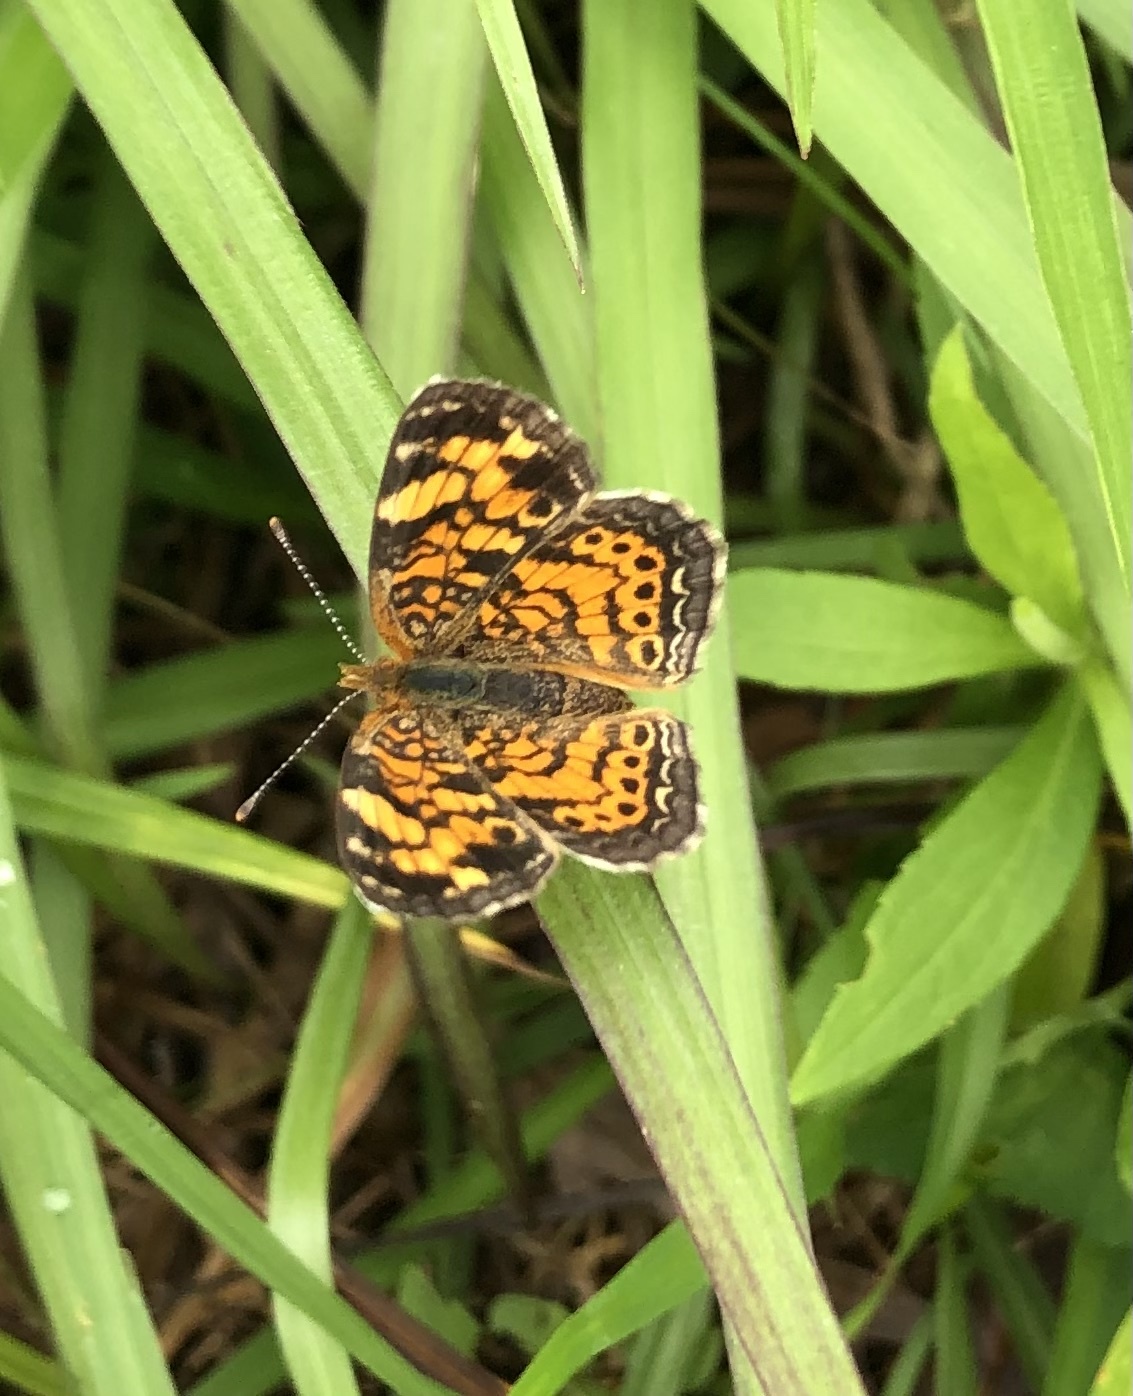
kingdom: Animalia
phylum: Arthropoda
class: Insecta
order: Lepidoptera
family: Nymphalidae
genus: Phyciodes
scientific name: Phyciodes tharos
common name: Pearl crescent
